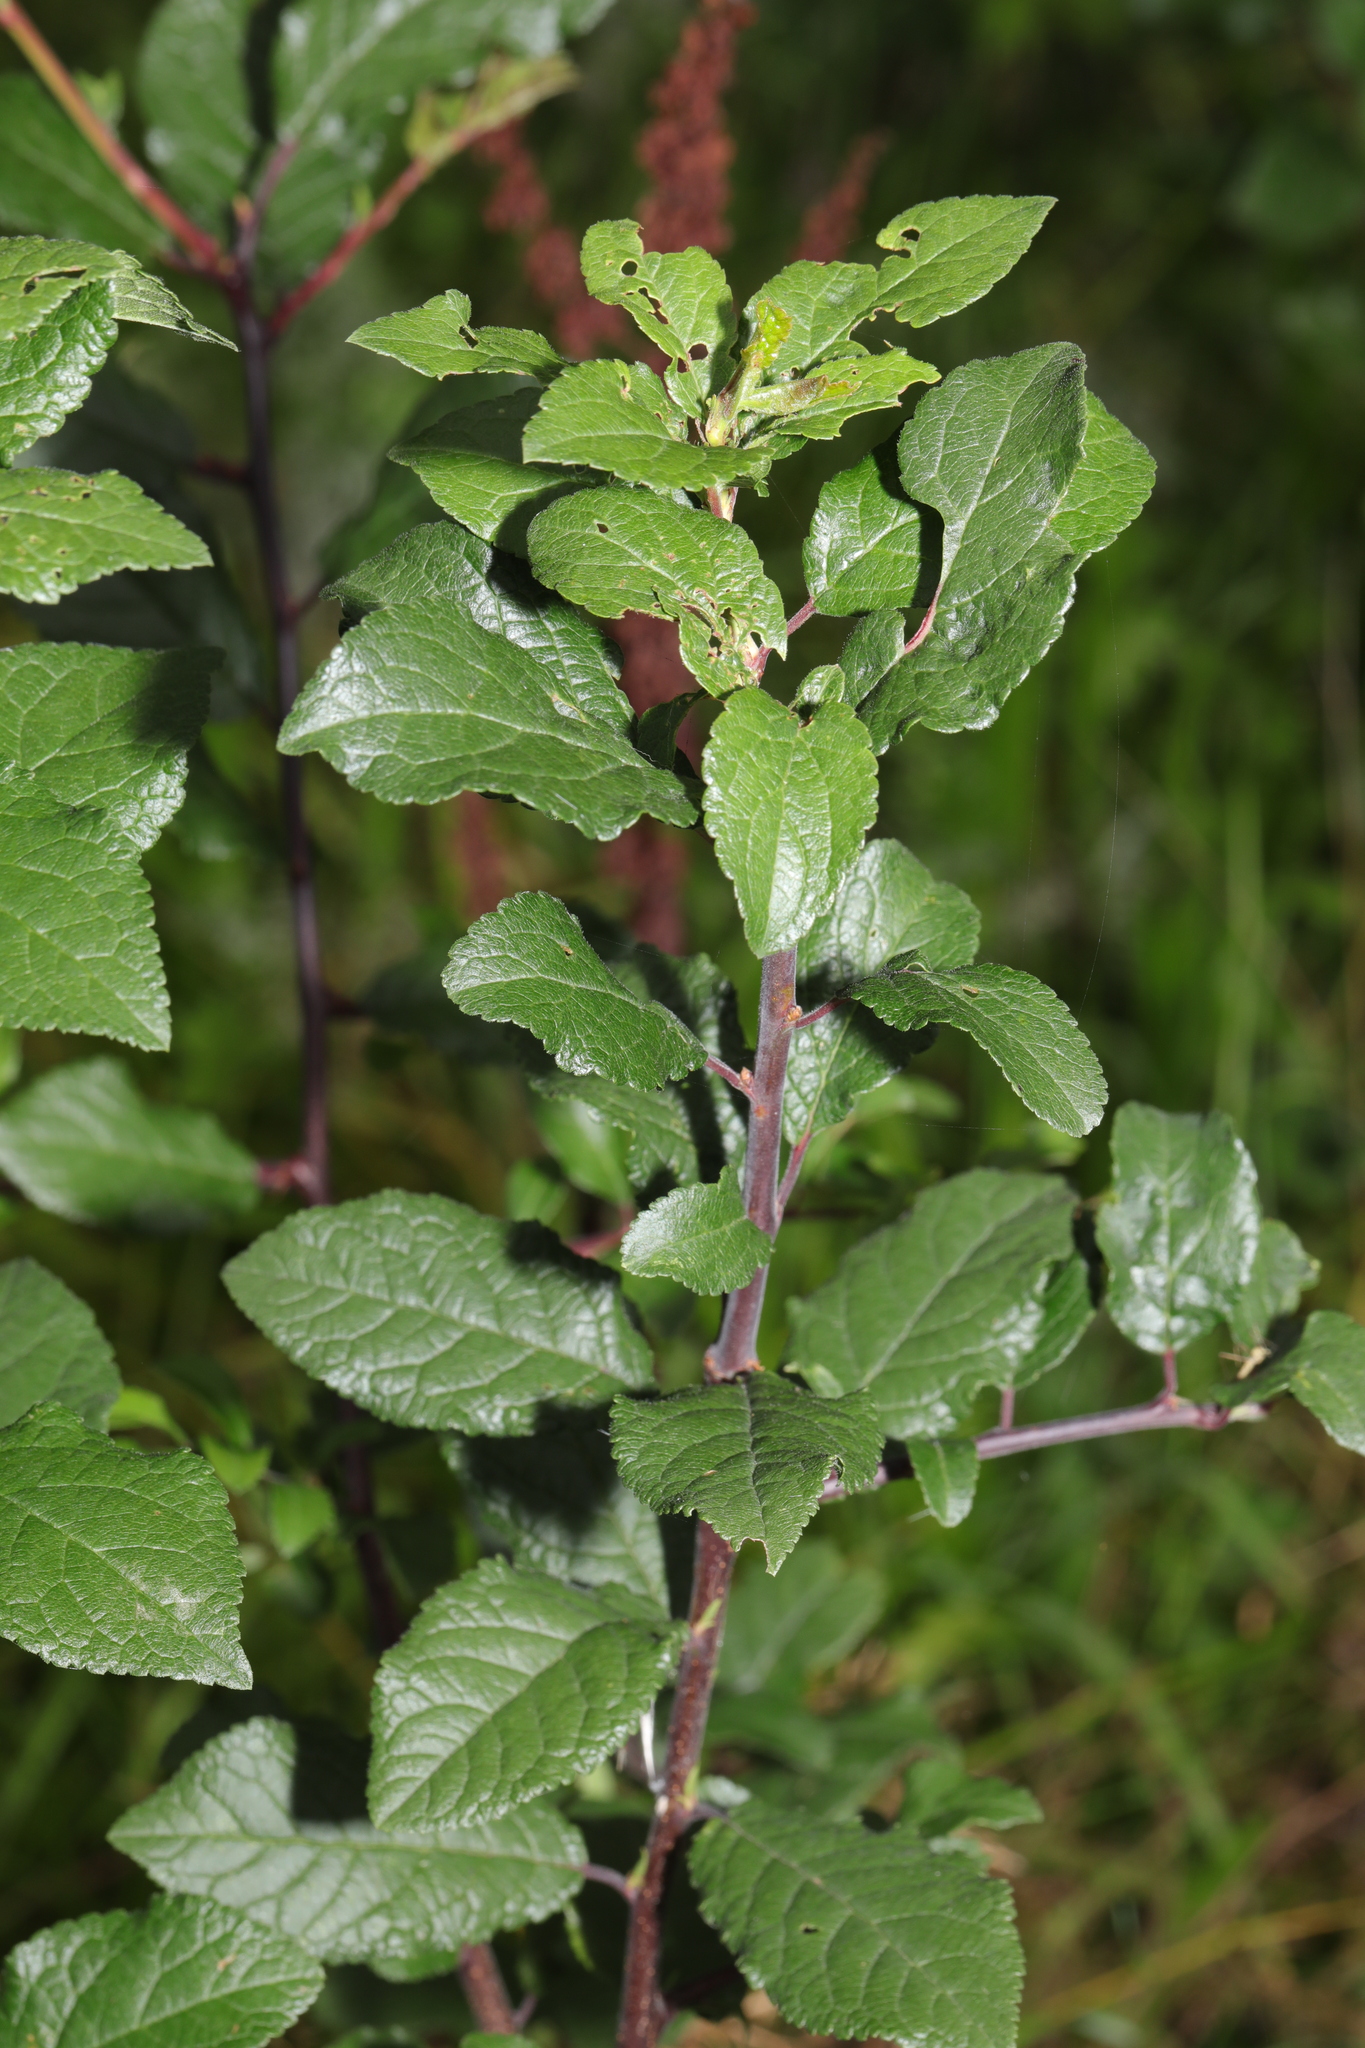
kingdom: Plantae
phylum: Tracheophyta
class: Magnoliopsida
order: Rosales
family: Rosaceae
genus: Prunus
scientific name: Prunus spinosa
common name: Blackthorn
